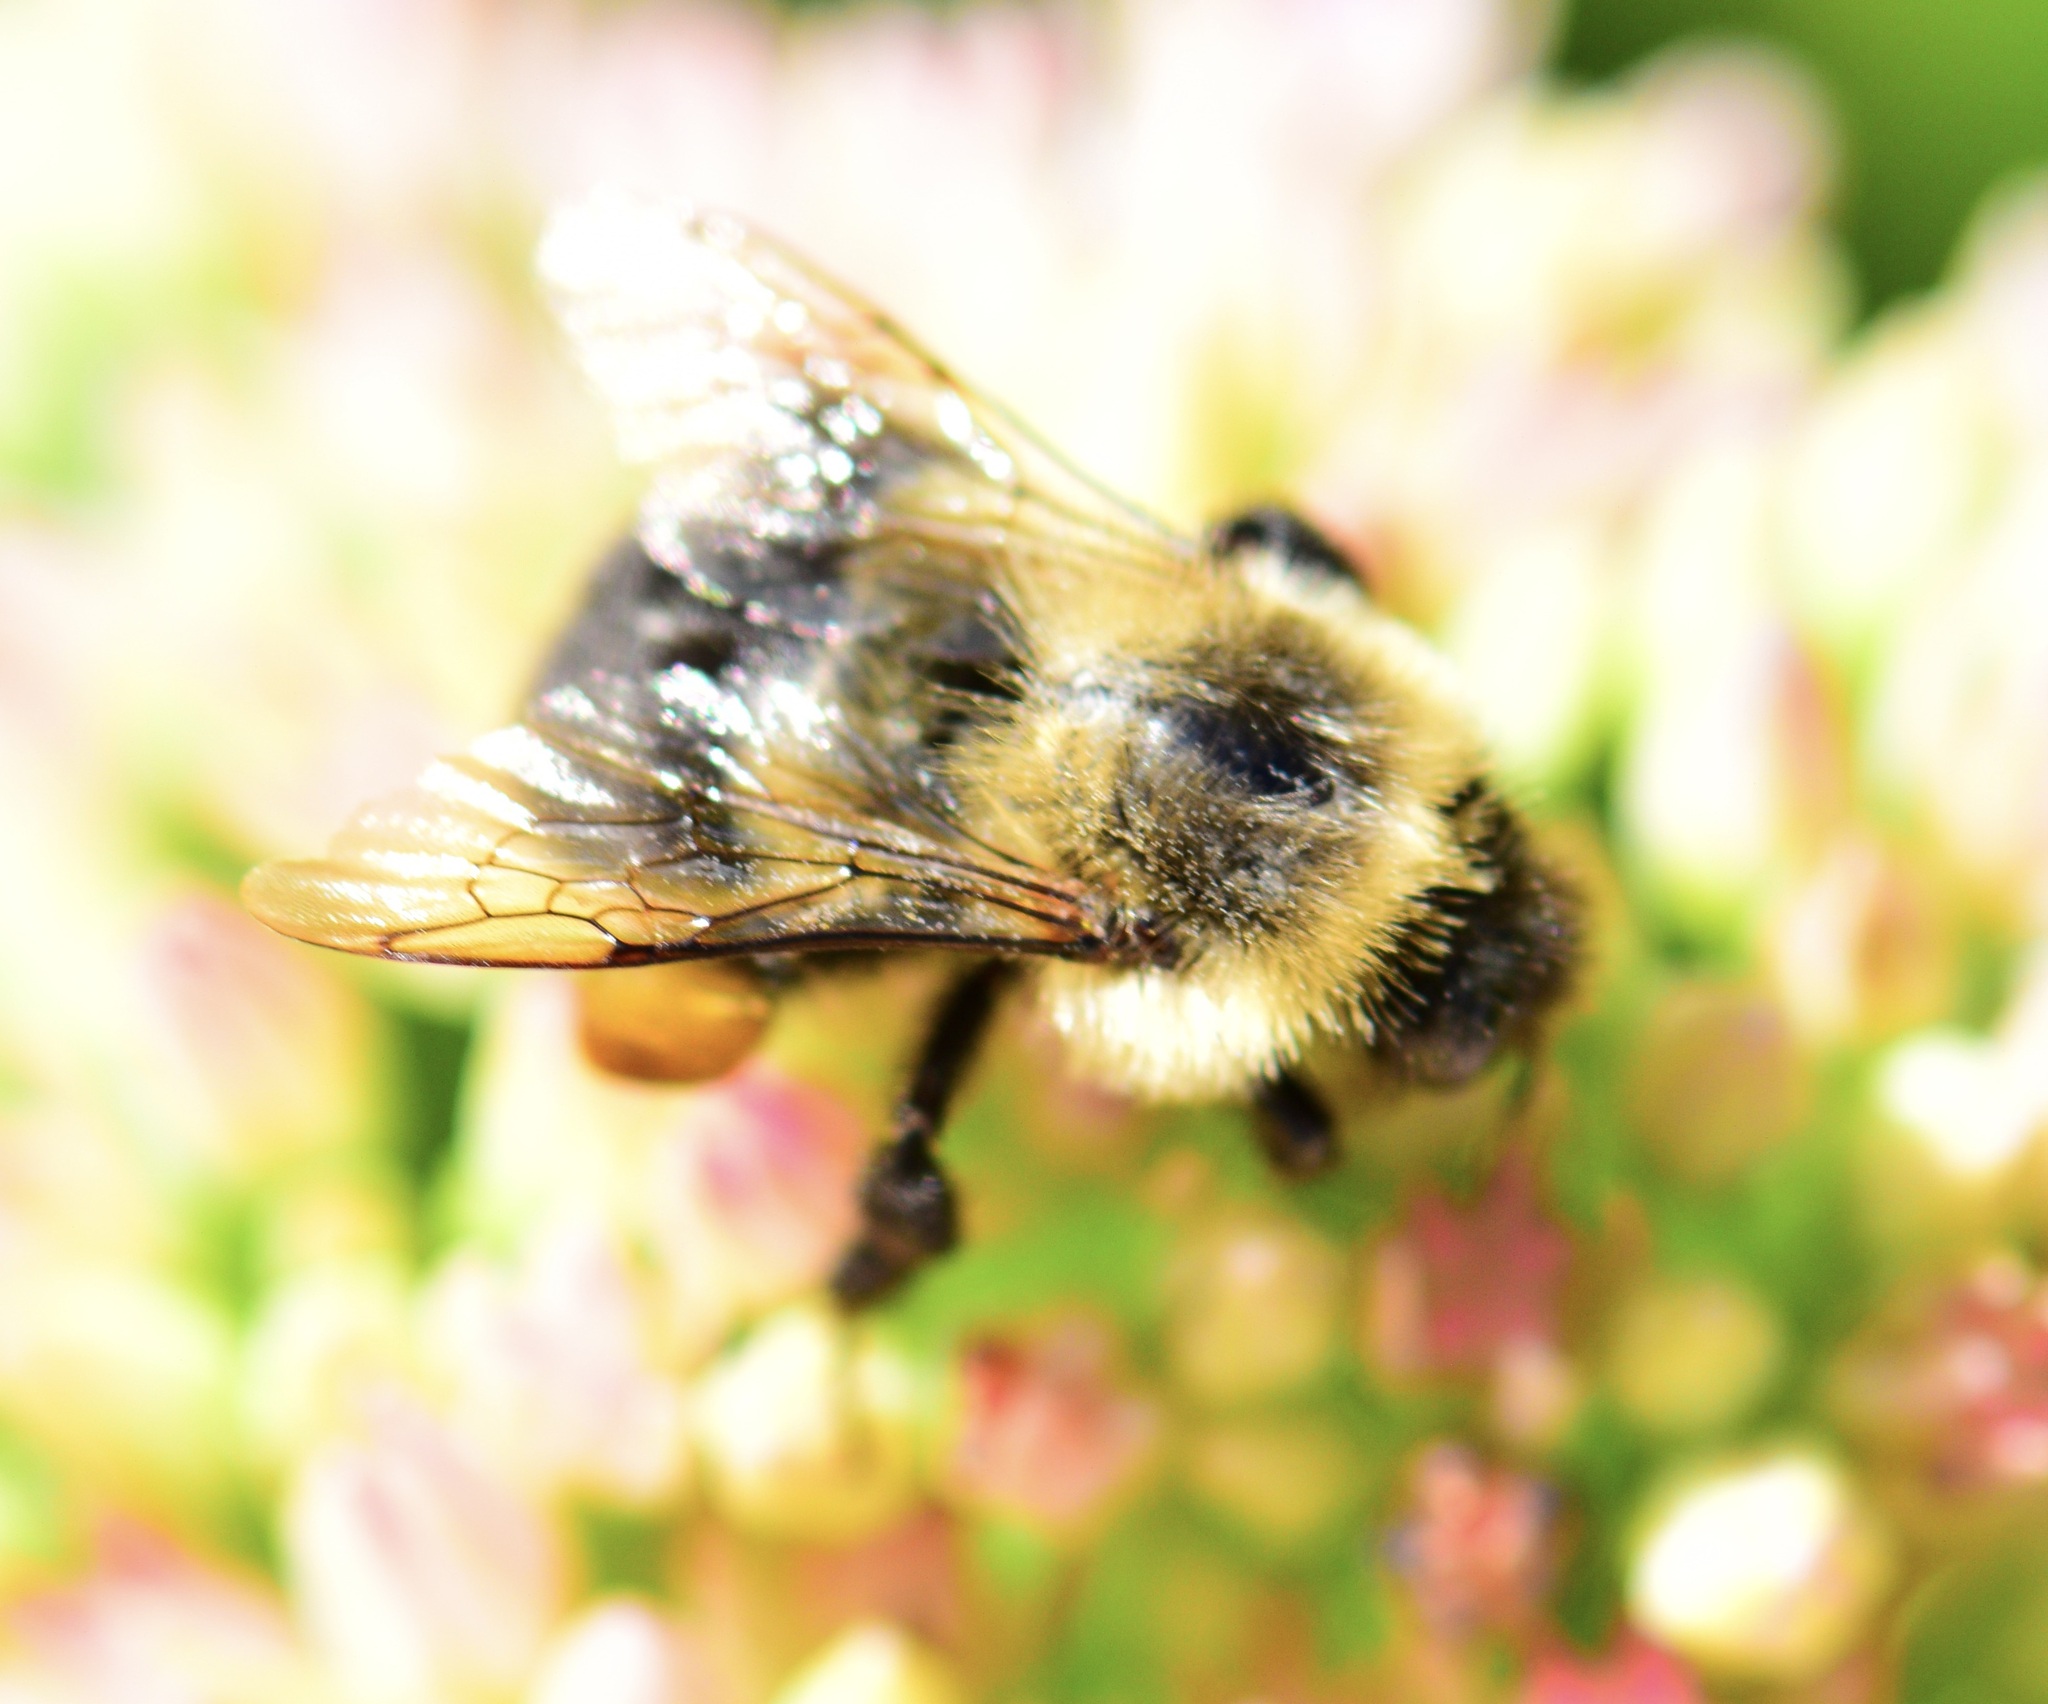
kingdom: Animalia
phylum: Arthropoda
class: Insecta
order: Hymenoptera
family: Apidae
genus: Bombus
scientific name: Bombus impatiens
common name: Common eastern bumble bee
